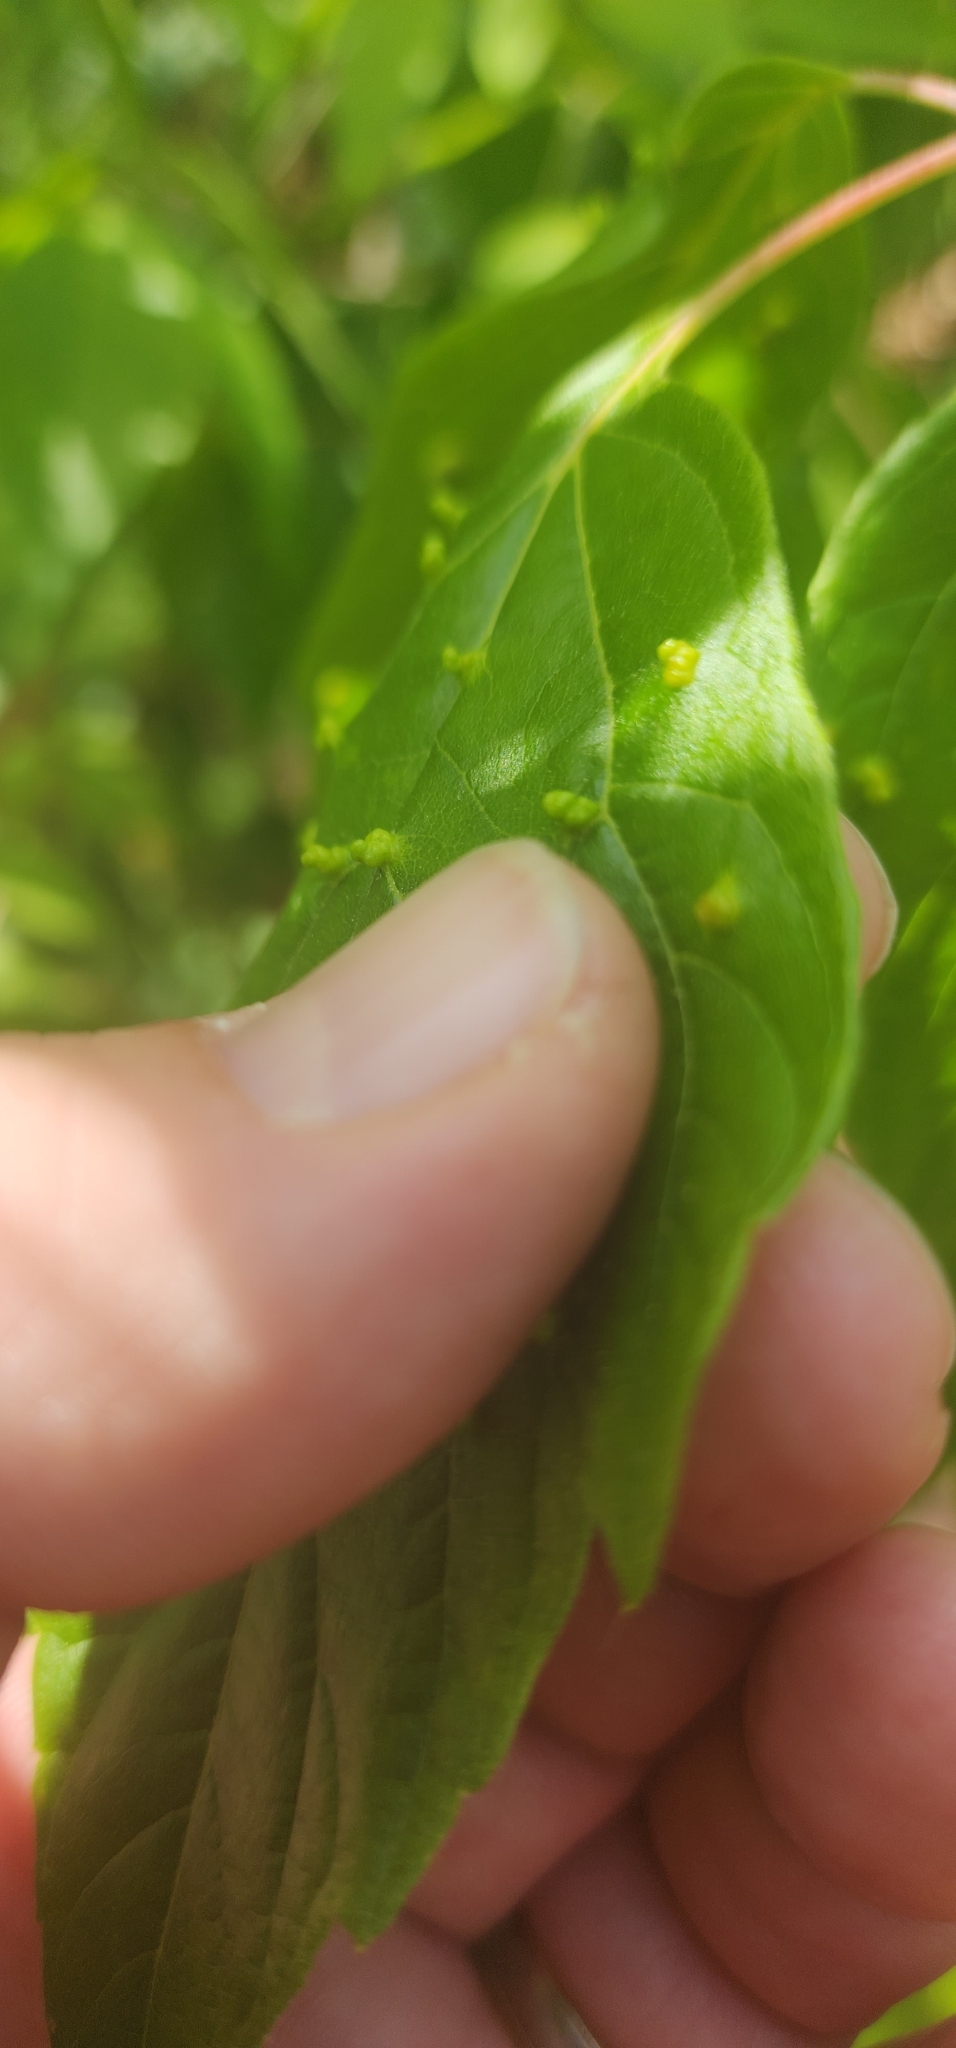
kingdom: Animalia
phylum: Arthropoda
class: Arachnida
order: Trombidiformes
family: Eriophyidae
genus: Aceria
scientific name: Aceria
